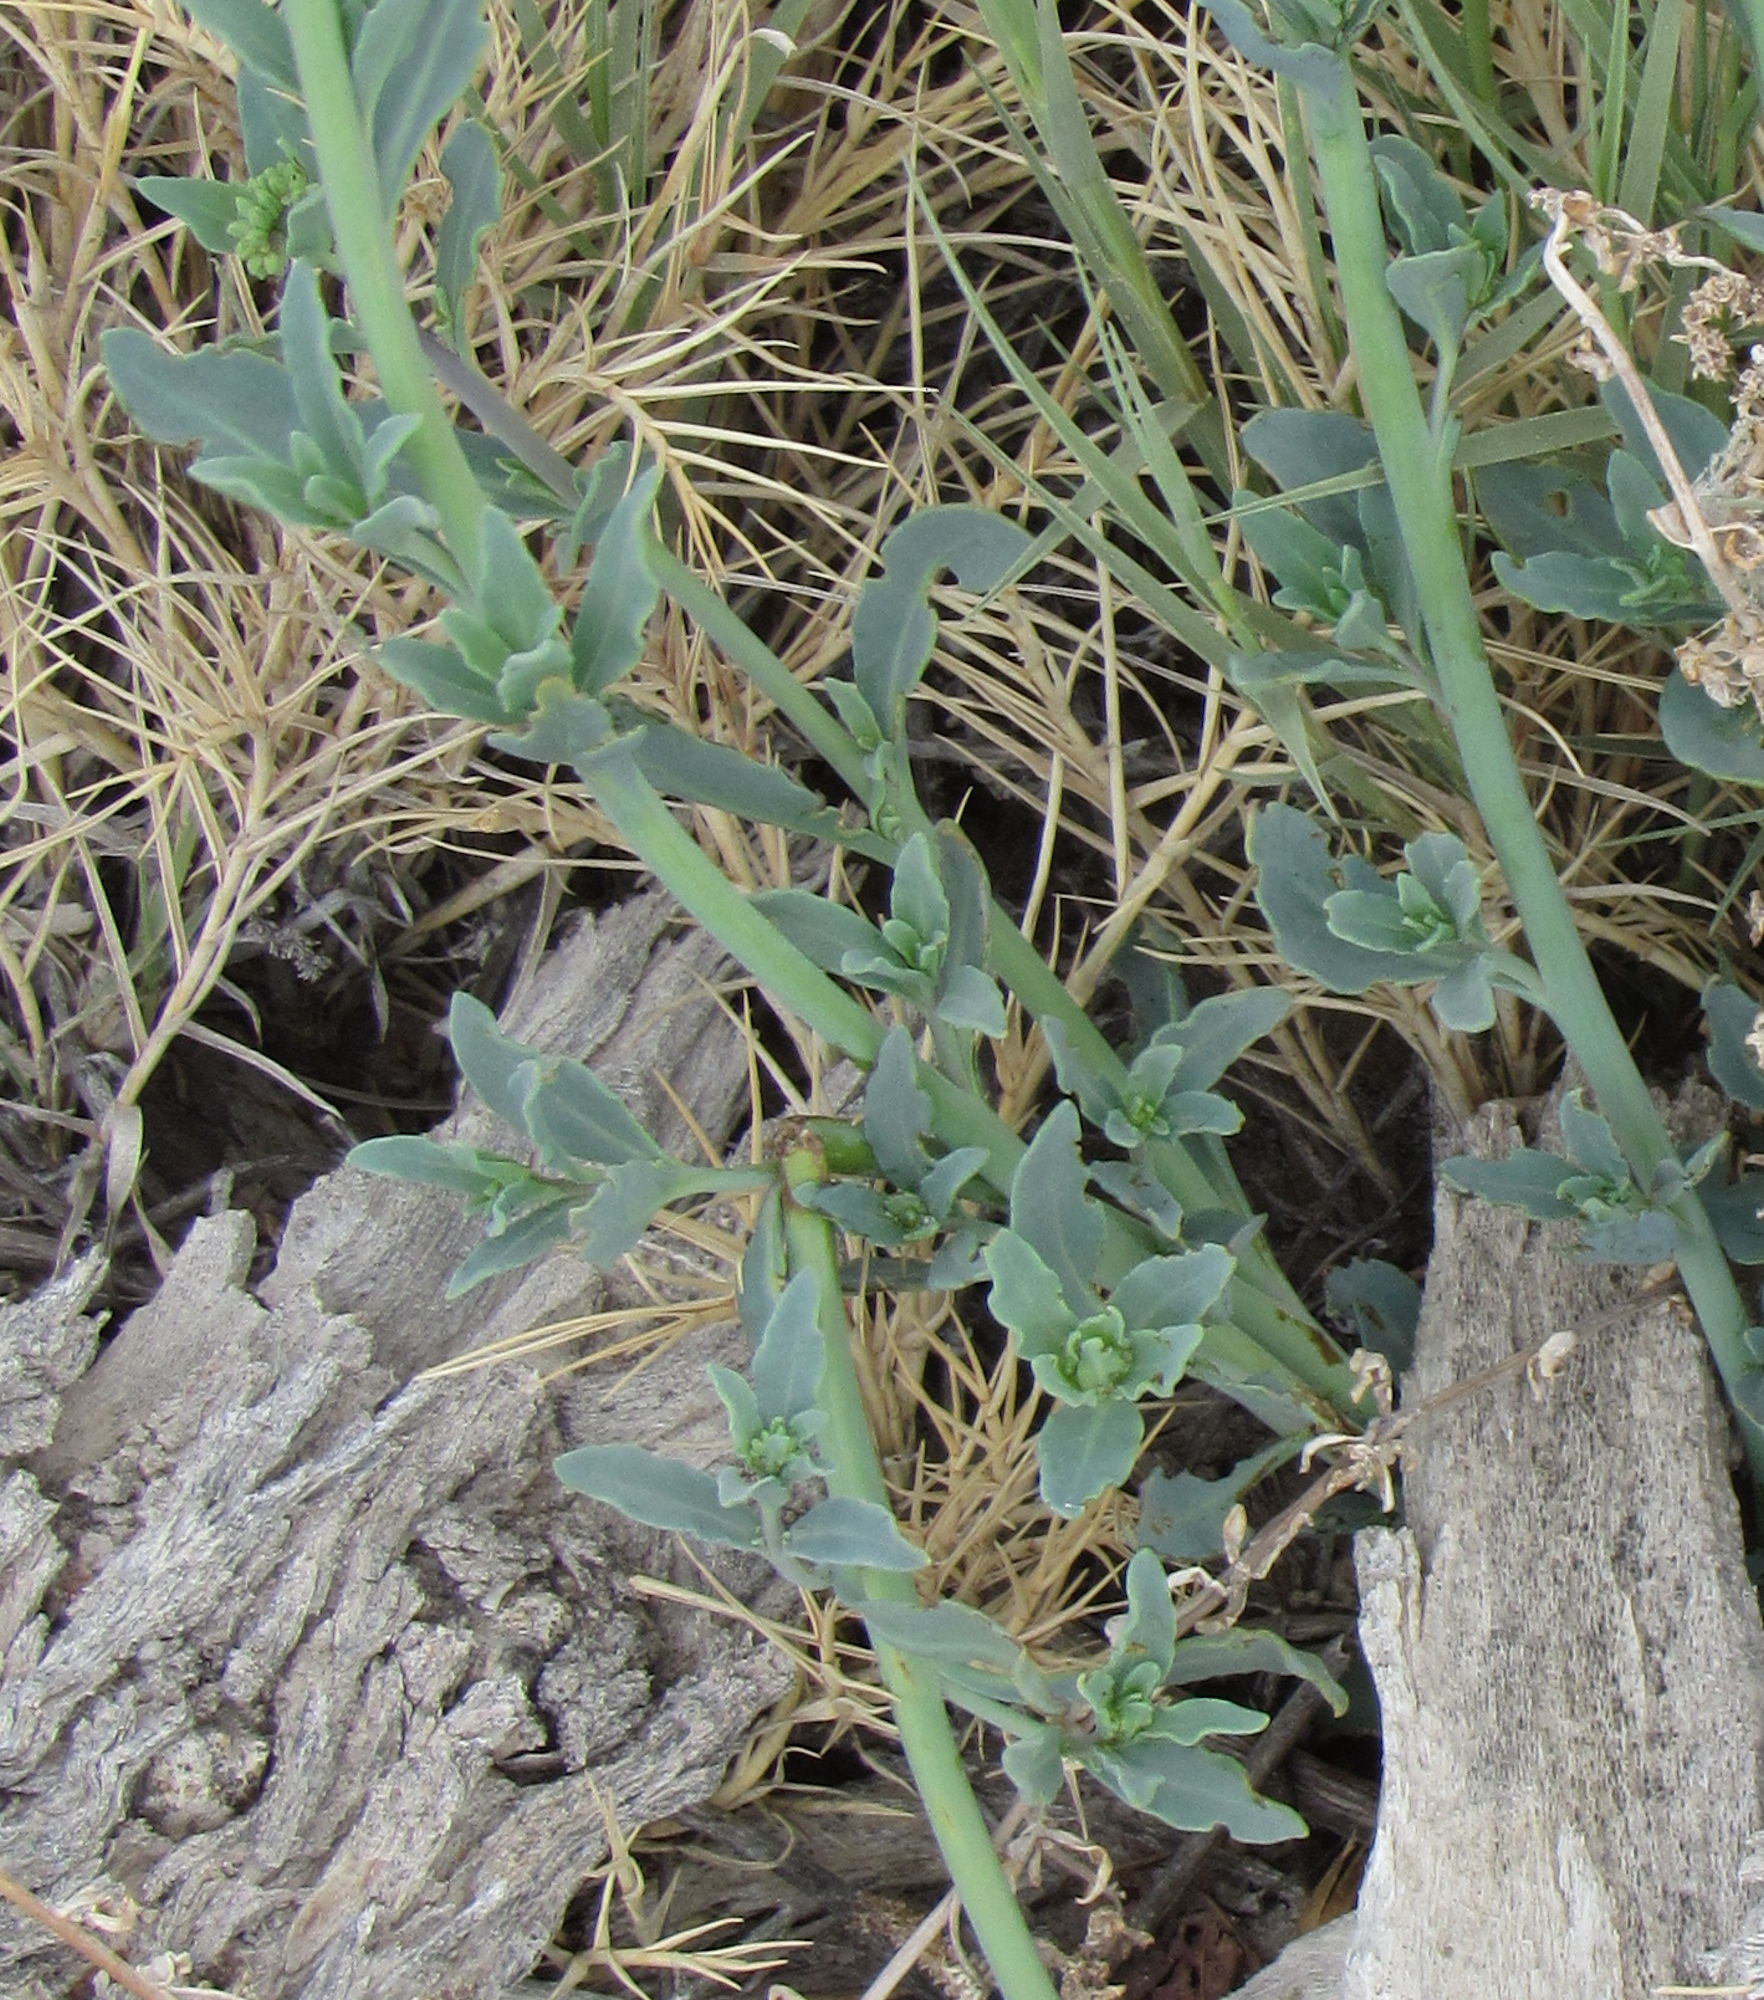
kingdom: Plantae
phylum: Tracheophyta
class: Magnoliopsida
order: Boraginales
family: Heliotropiaceae
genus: Heliotropium
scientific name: Heliotropium curassavicum
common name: Seaside heliotrope
